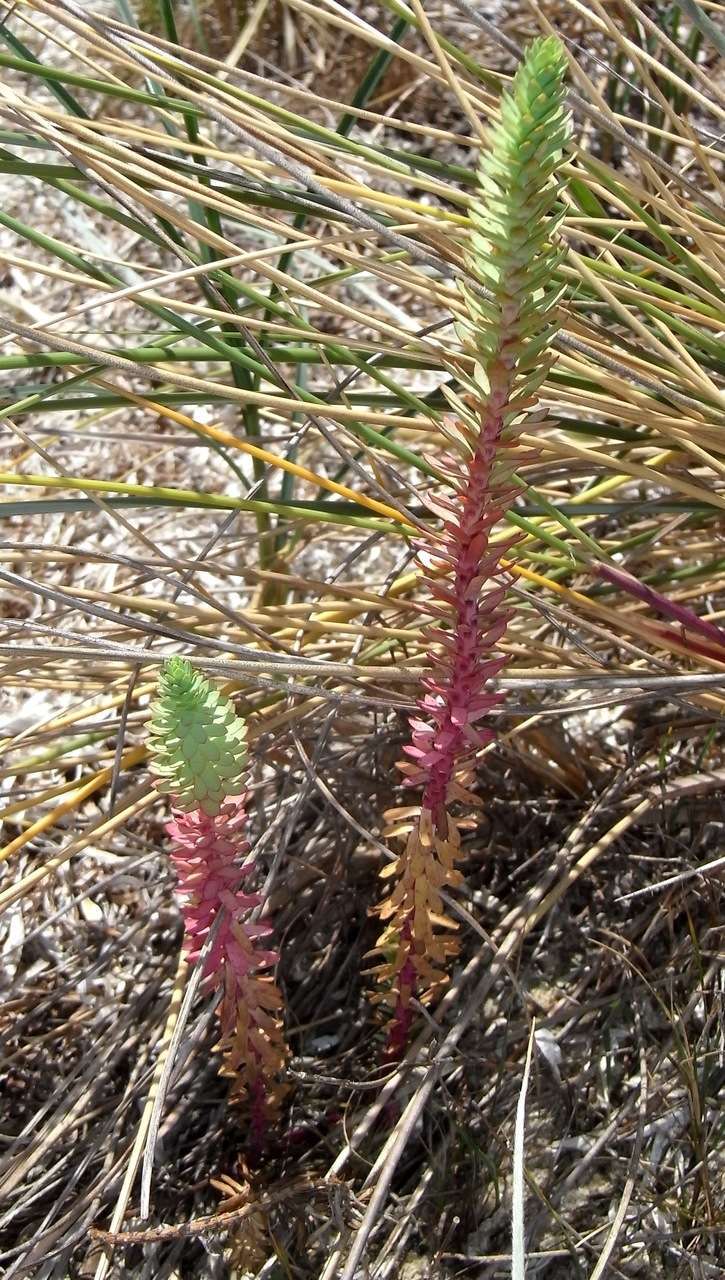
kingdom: Plantae
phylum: Tracheophyta
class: Magnoliopsida
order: Malpighiales
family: Euphorbiaceae
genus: Euphorbia
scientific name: Euphorbia paralias
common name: Sea spurge
